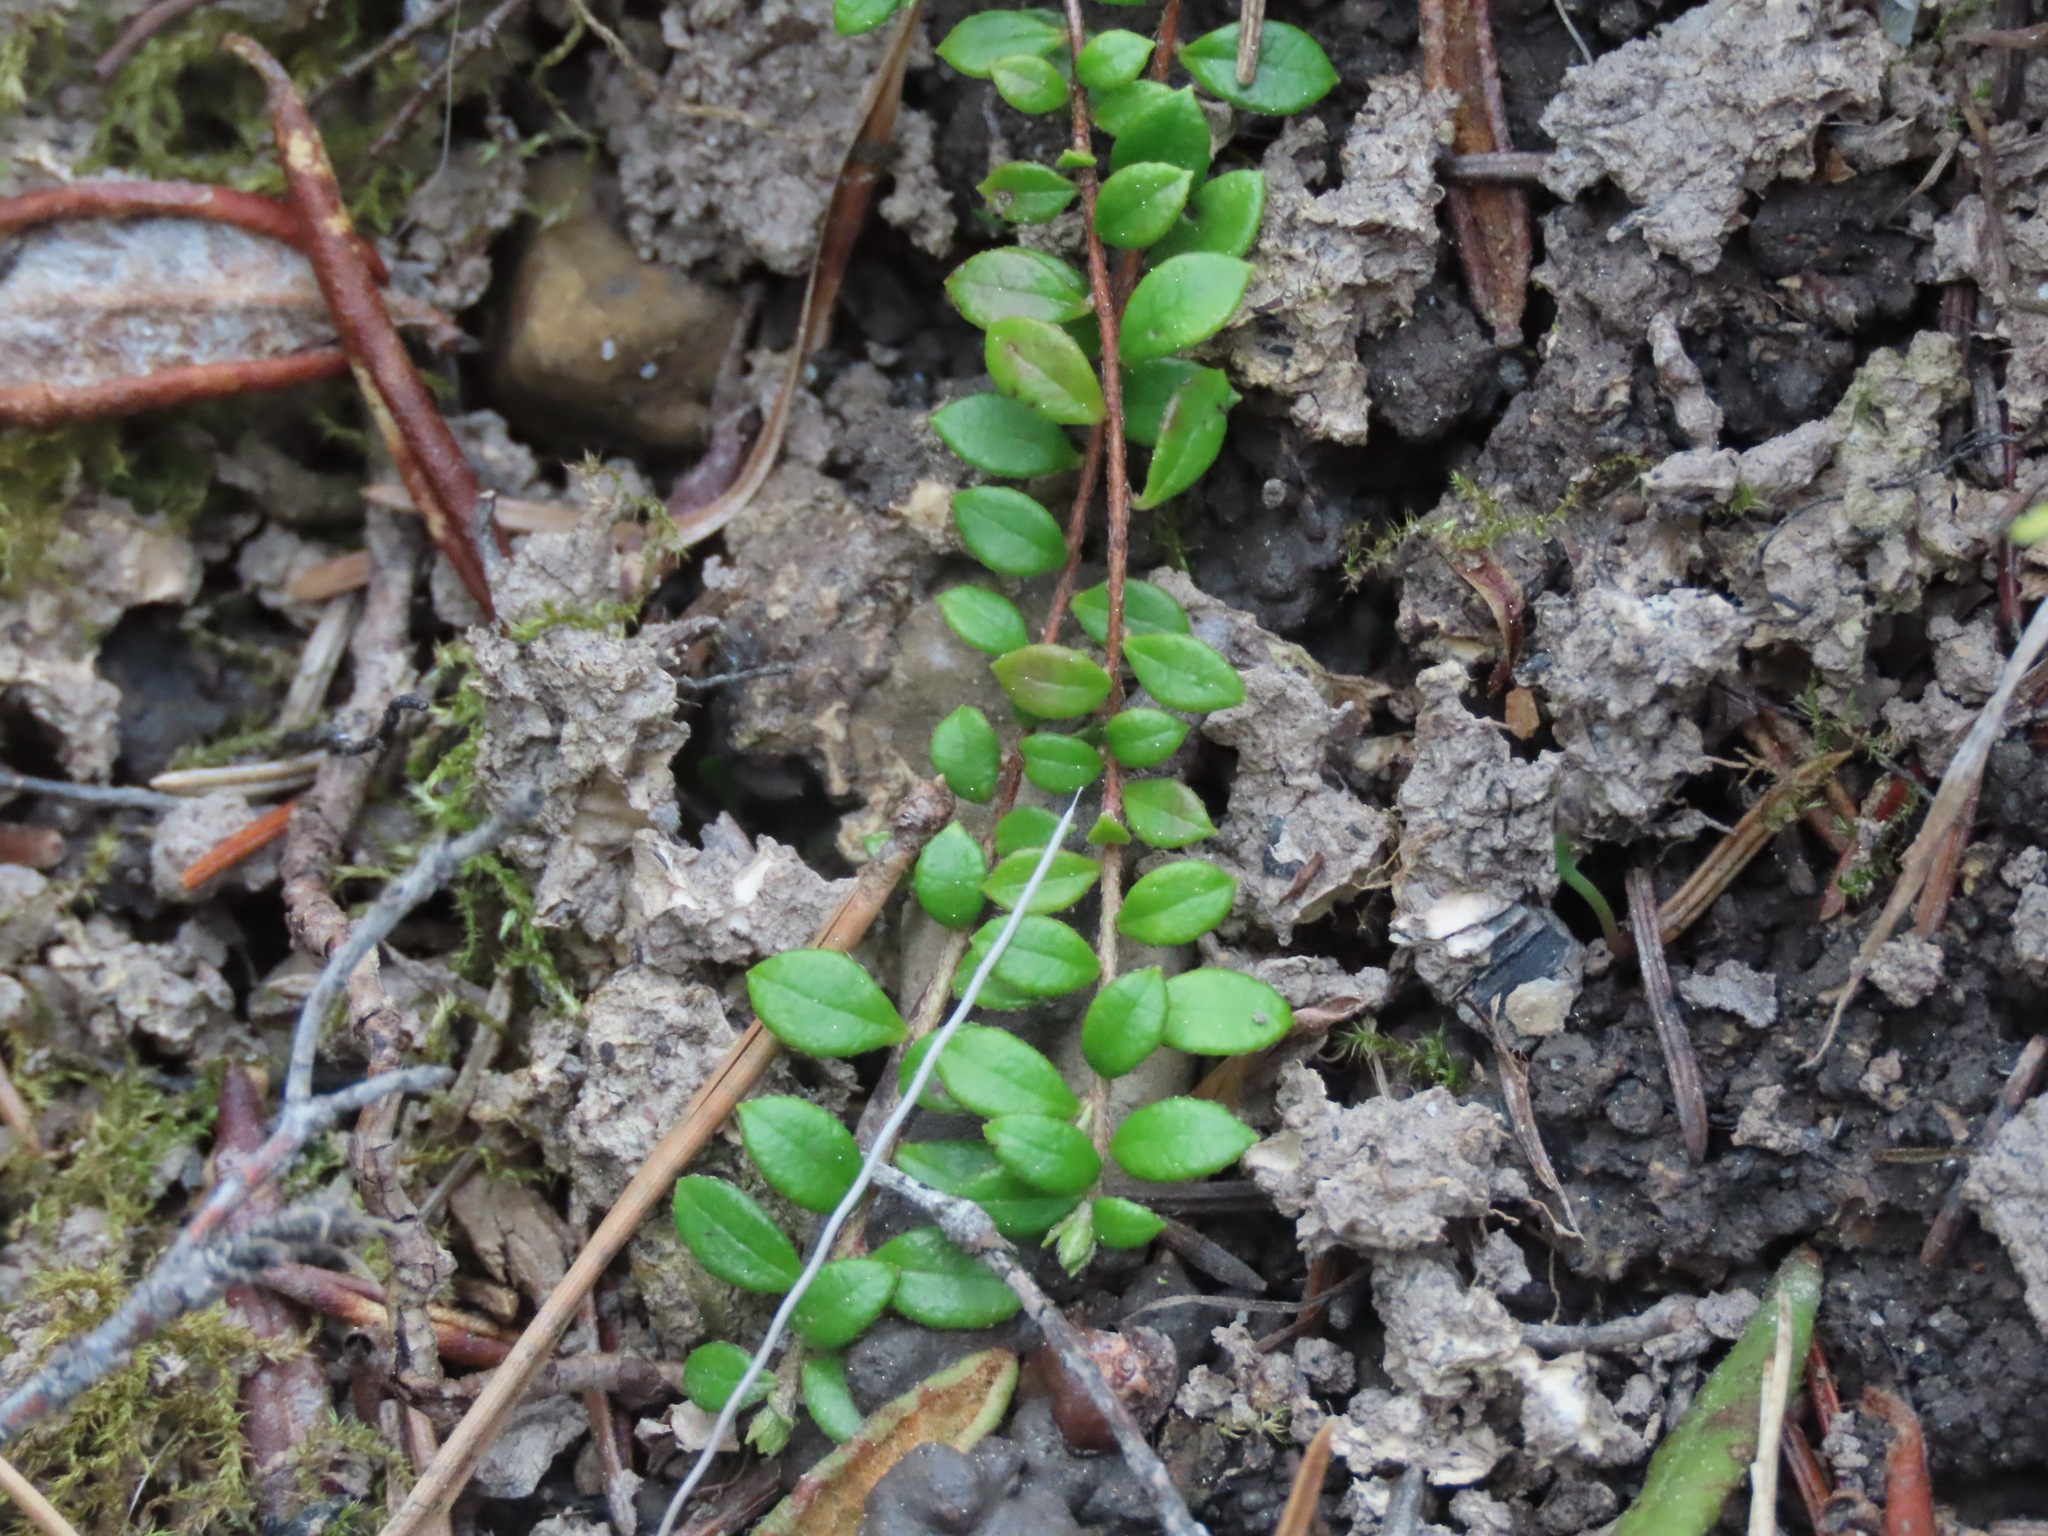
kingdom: Plantae
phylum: Tracheophyta
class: Magnoliopsida
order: Ericales
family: Ericaceae
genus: Gaultheria
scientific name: Gaultheria hispidula
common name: Cancer wintergreen
